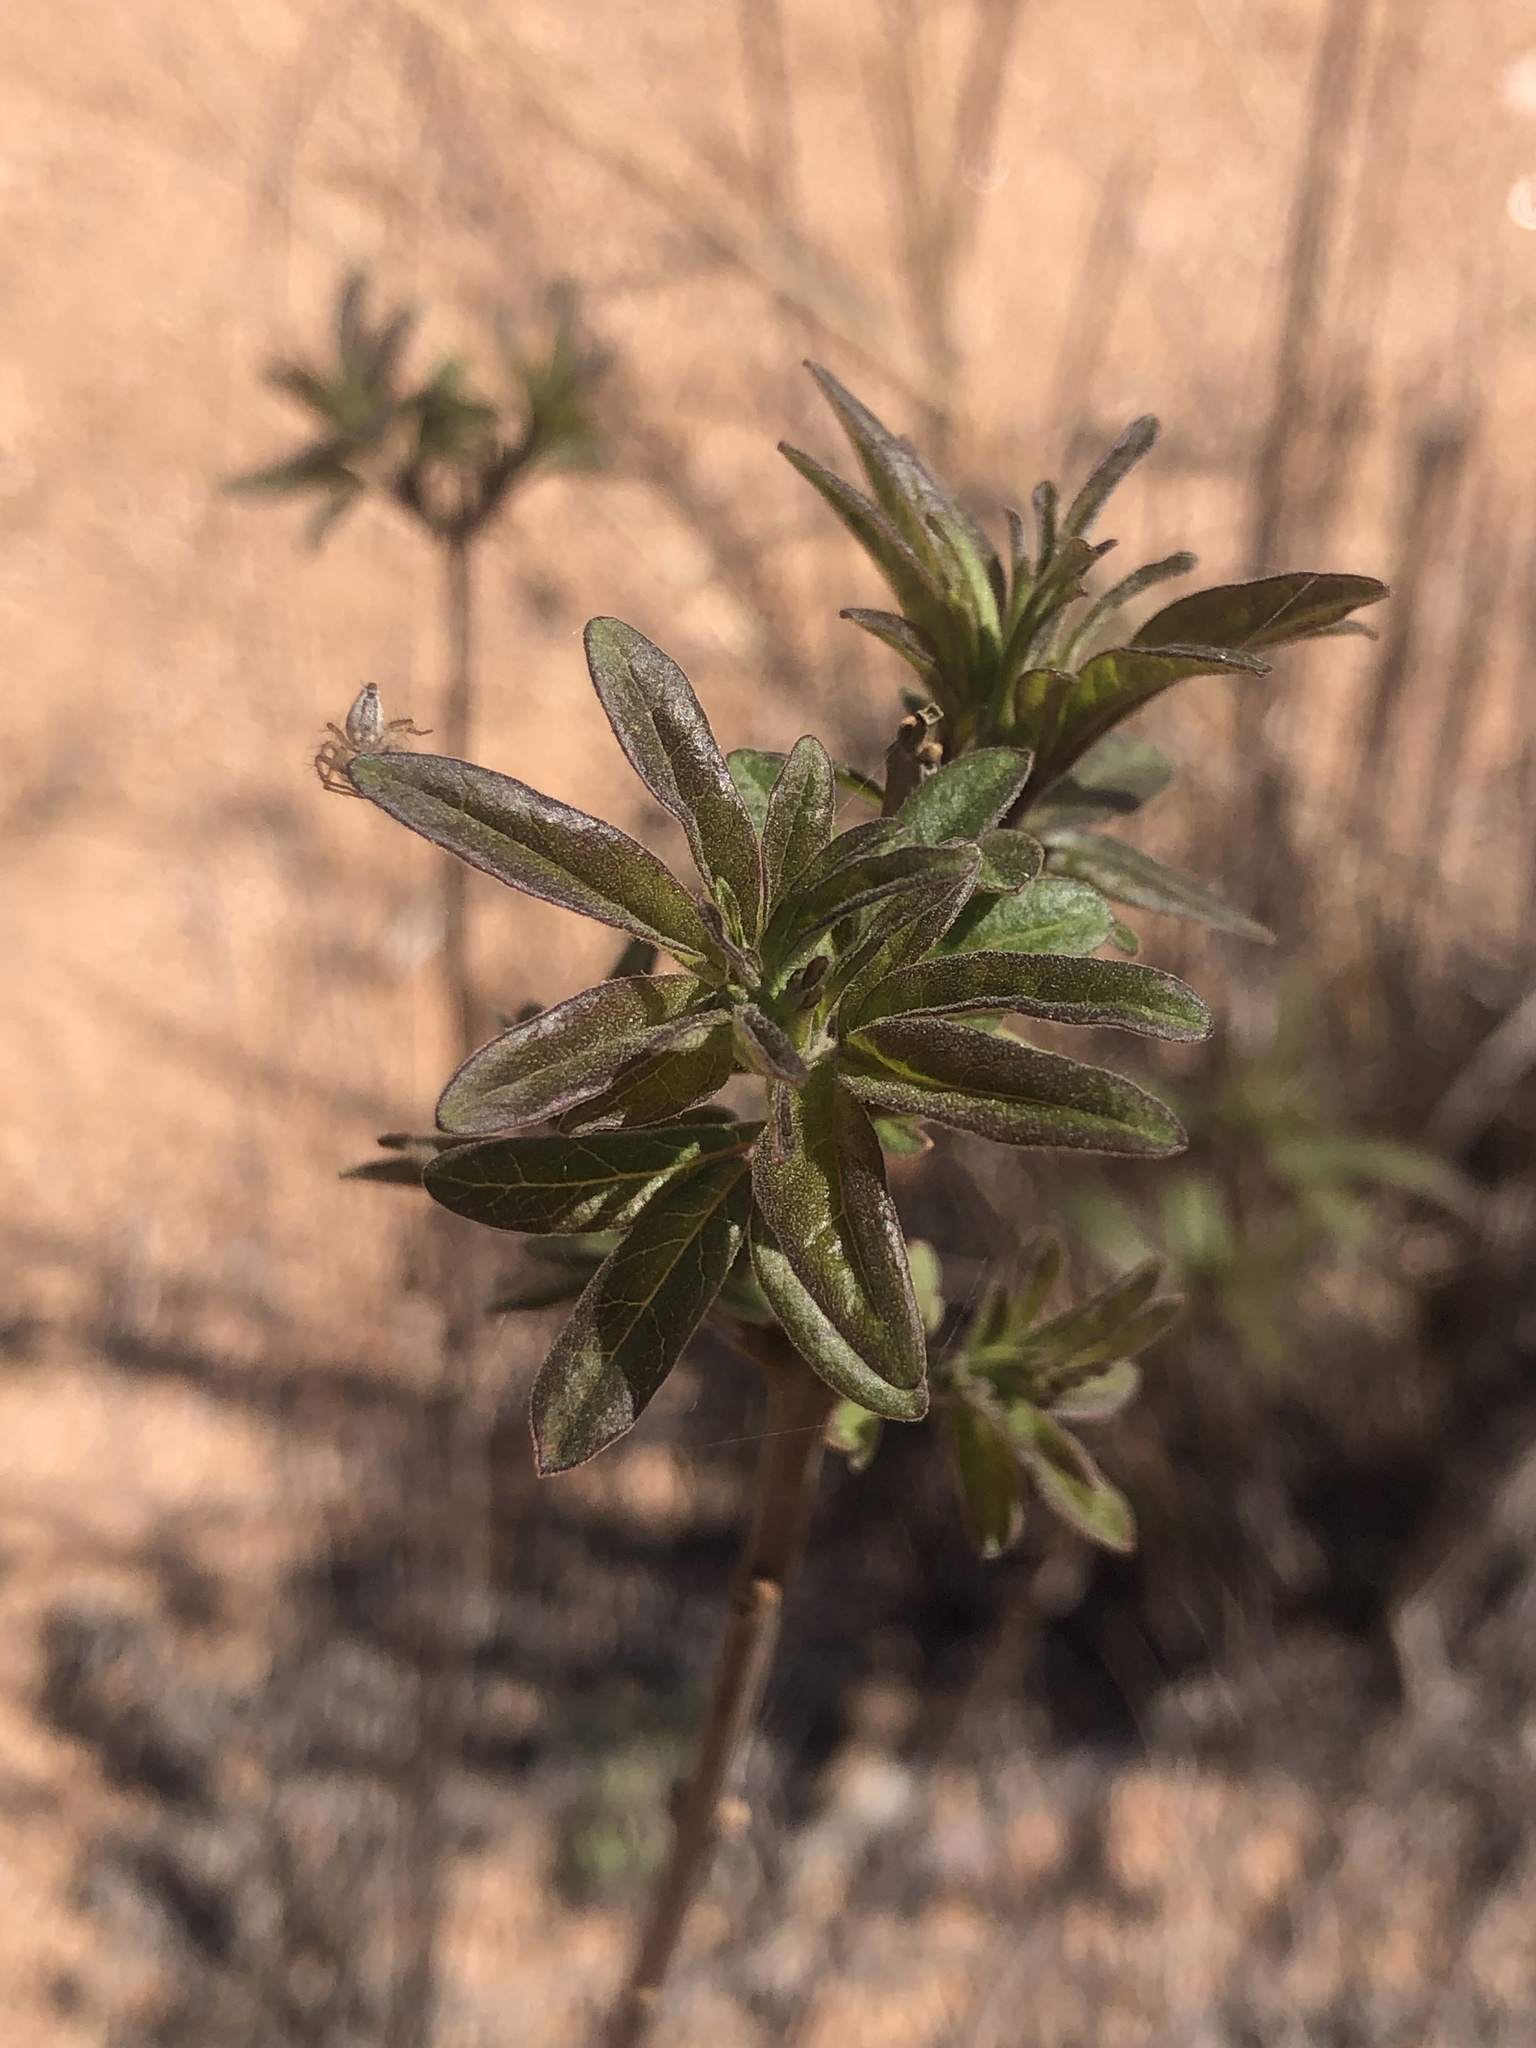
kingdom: Plantae
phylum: Tracheophyta
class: Magnoliopsida
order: Lamiales
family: Lamiaceae
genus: Vitex
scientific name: Vitex agnus-castus
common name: Chasteberry
